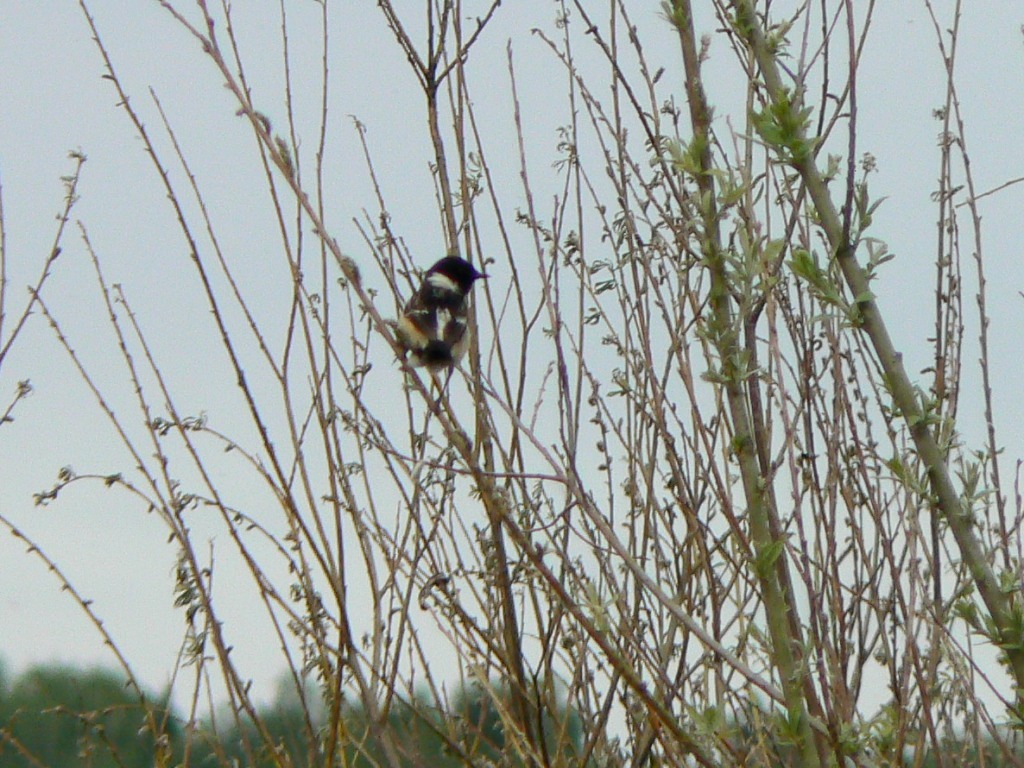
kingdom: Animalia
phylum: Chordata
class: Aves
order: Passeriformes
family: Muscicapidae
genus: Saxicola
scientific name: Saxicola maurus
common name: Siberian stonechat
